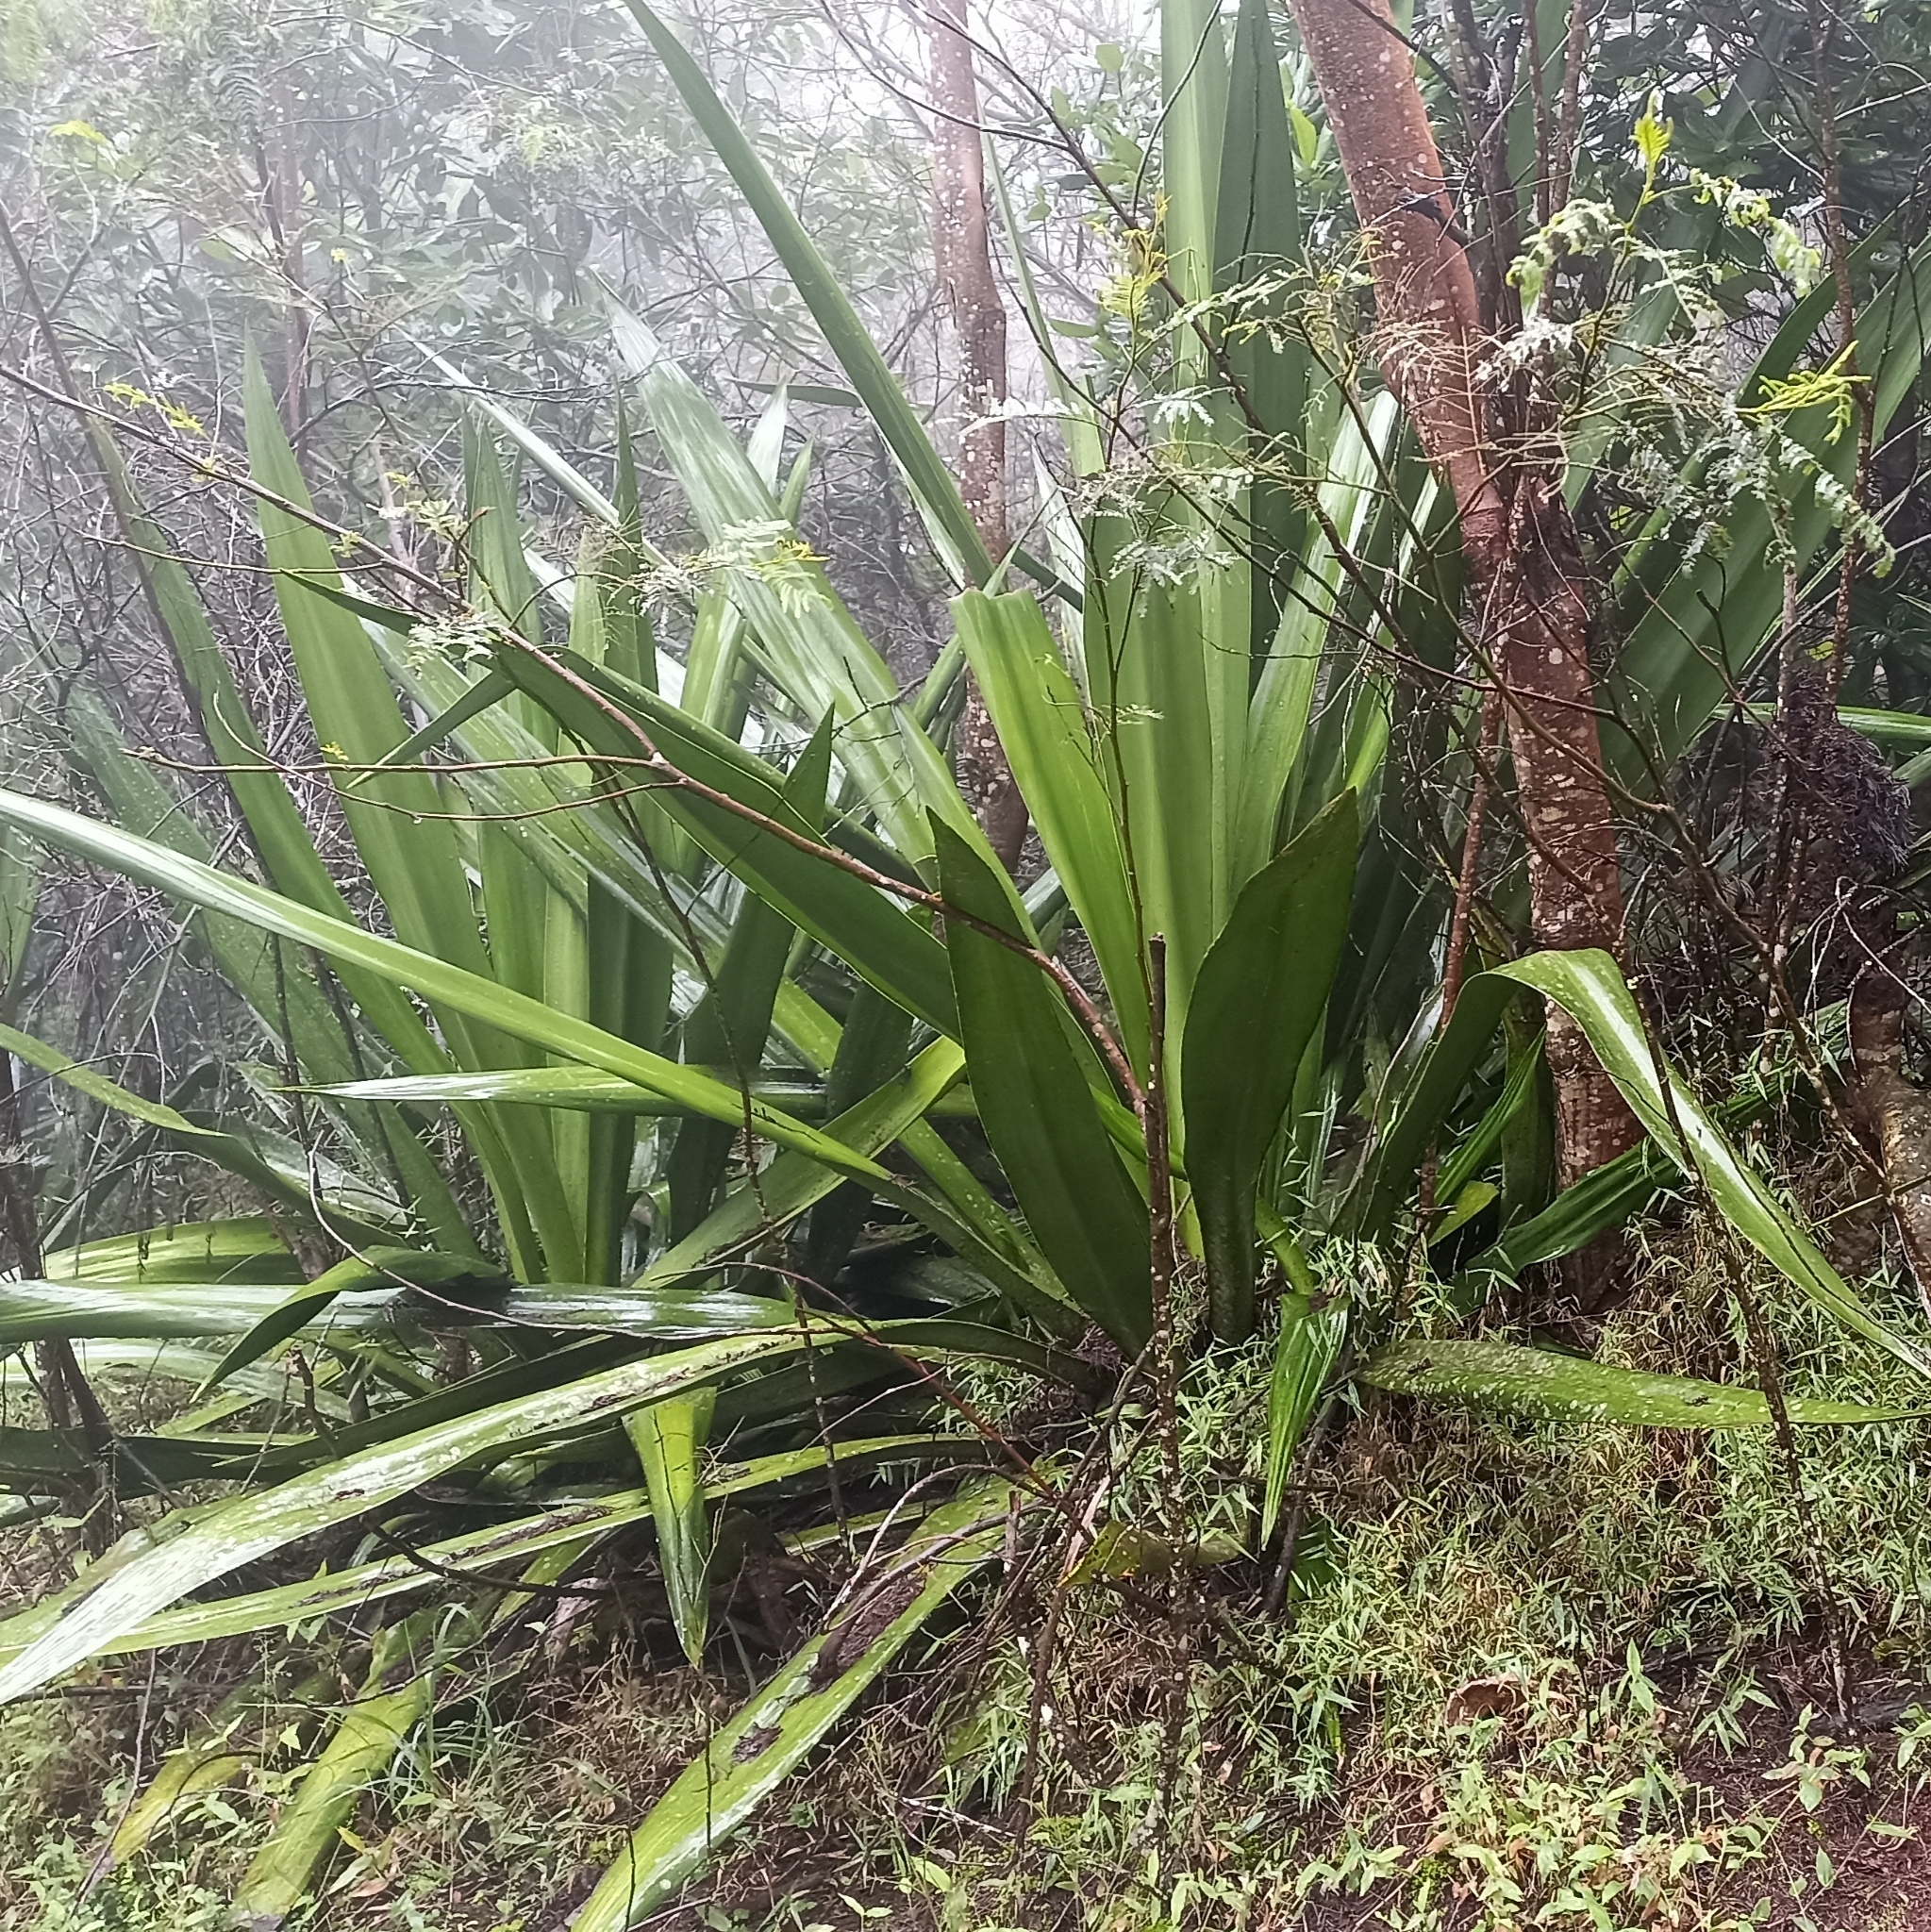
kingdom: Plantae
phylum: Tracheophyta
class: Liliopsida
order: Asparagales
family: Asparagaceae
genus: Furcraea
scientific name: Furcraea foetida
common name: Mauritius hemp
